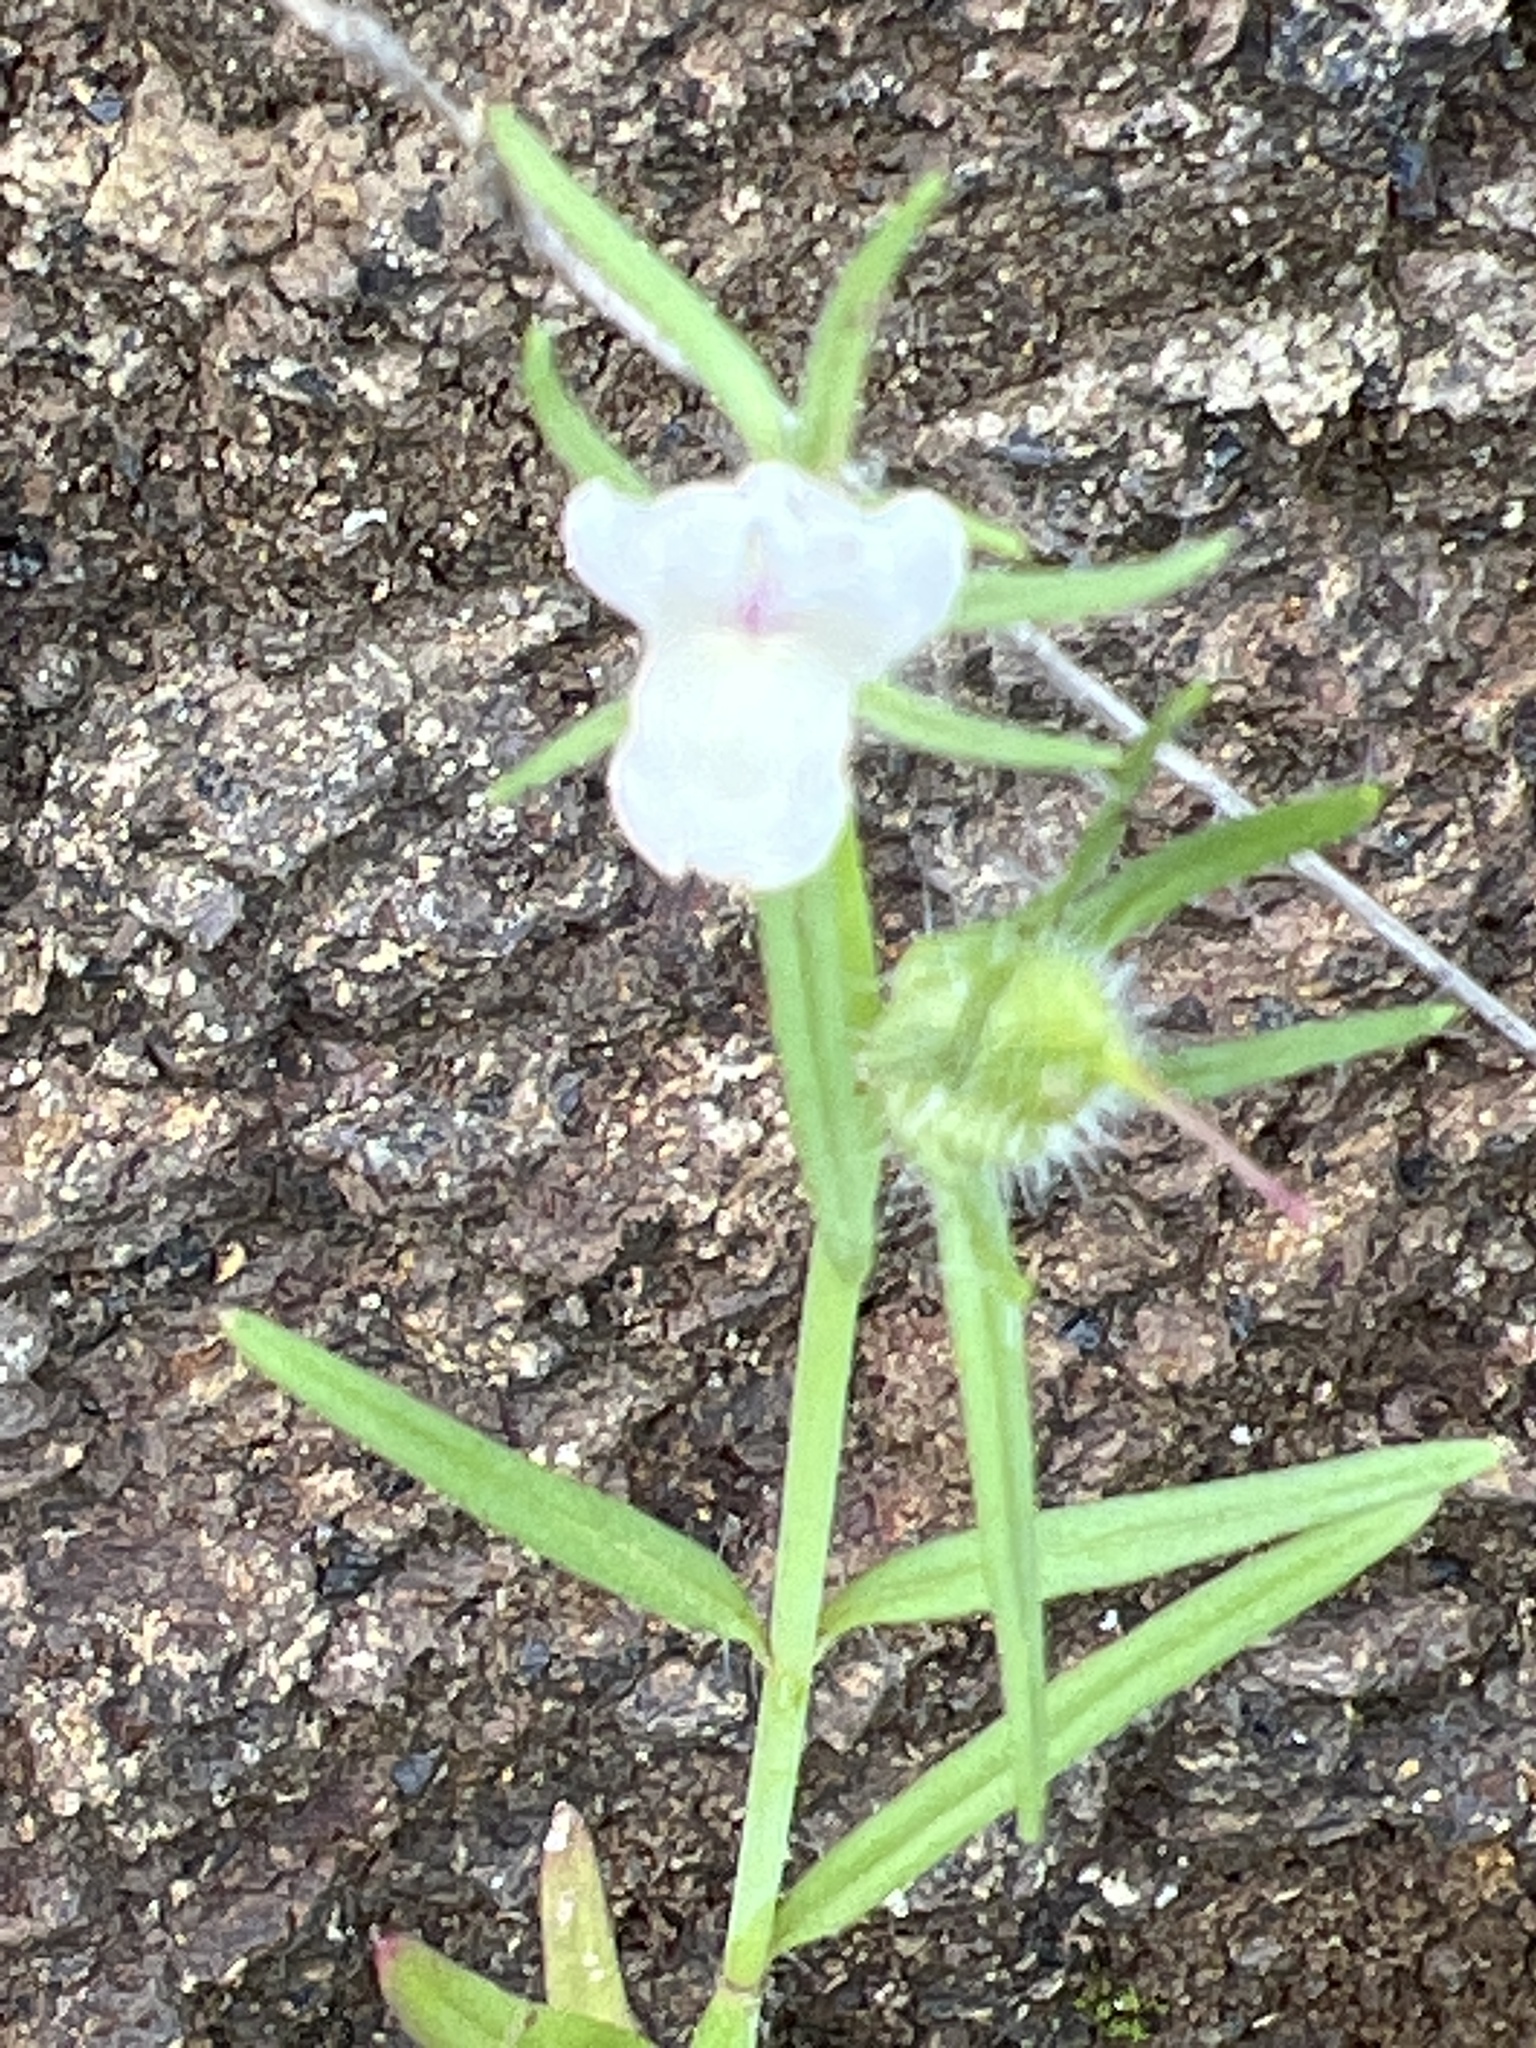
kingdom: Plantae
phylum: Tracheophyta
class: Magnoliopsida
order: Lamiales
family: Plantaginaceae
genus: Misopates
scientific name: Misopates orontium
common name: Weasel's-snout
